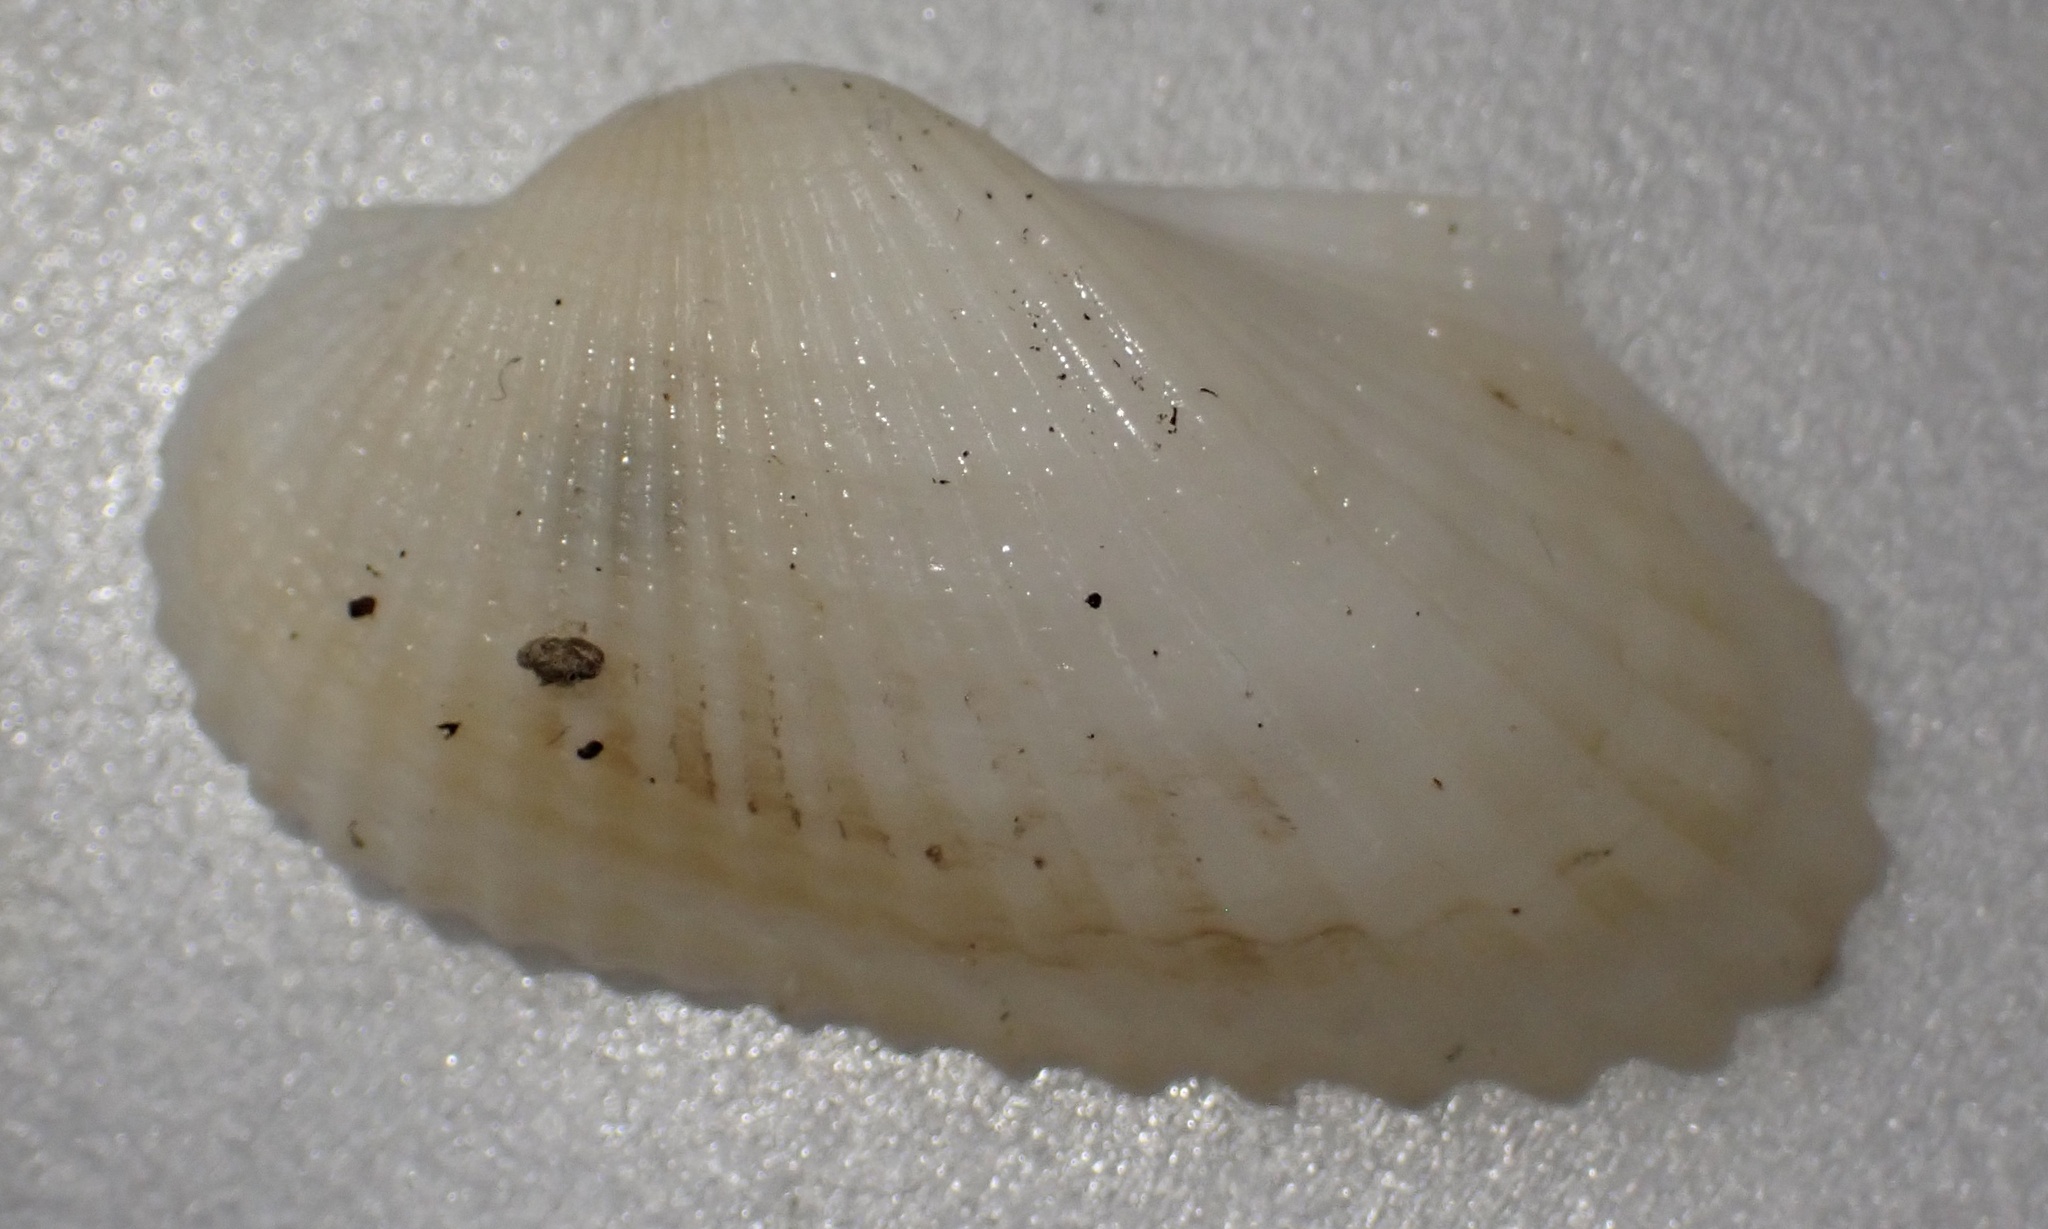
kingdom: Animalia
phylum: Mollusca
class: Bivalvia
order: Arcida
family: Arcidae
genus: Anadara
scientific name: Anadara transversa
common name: Transverse ark
